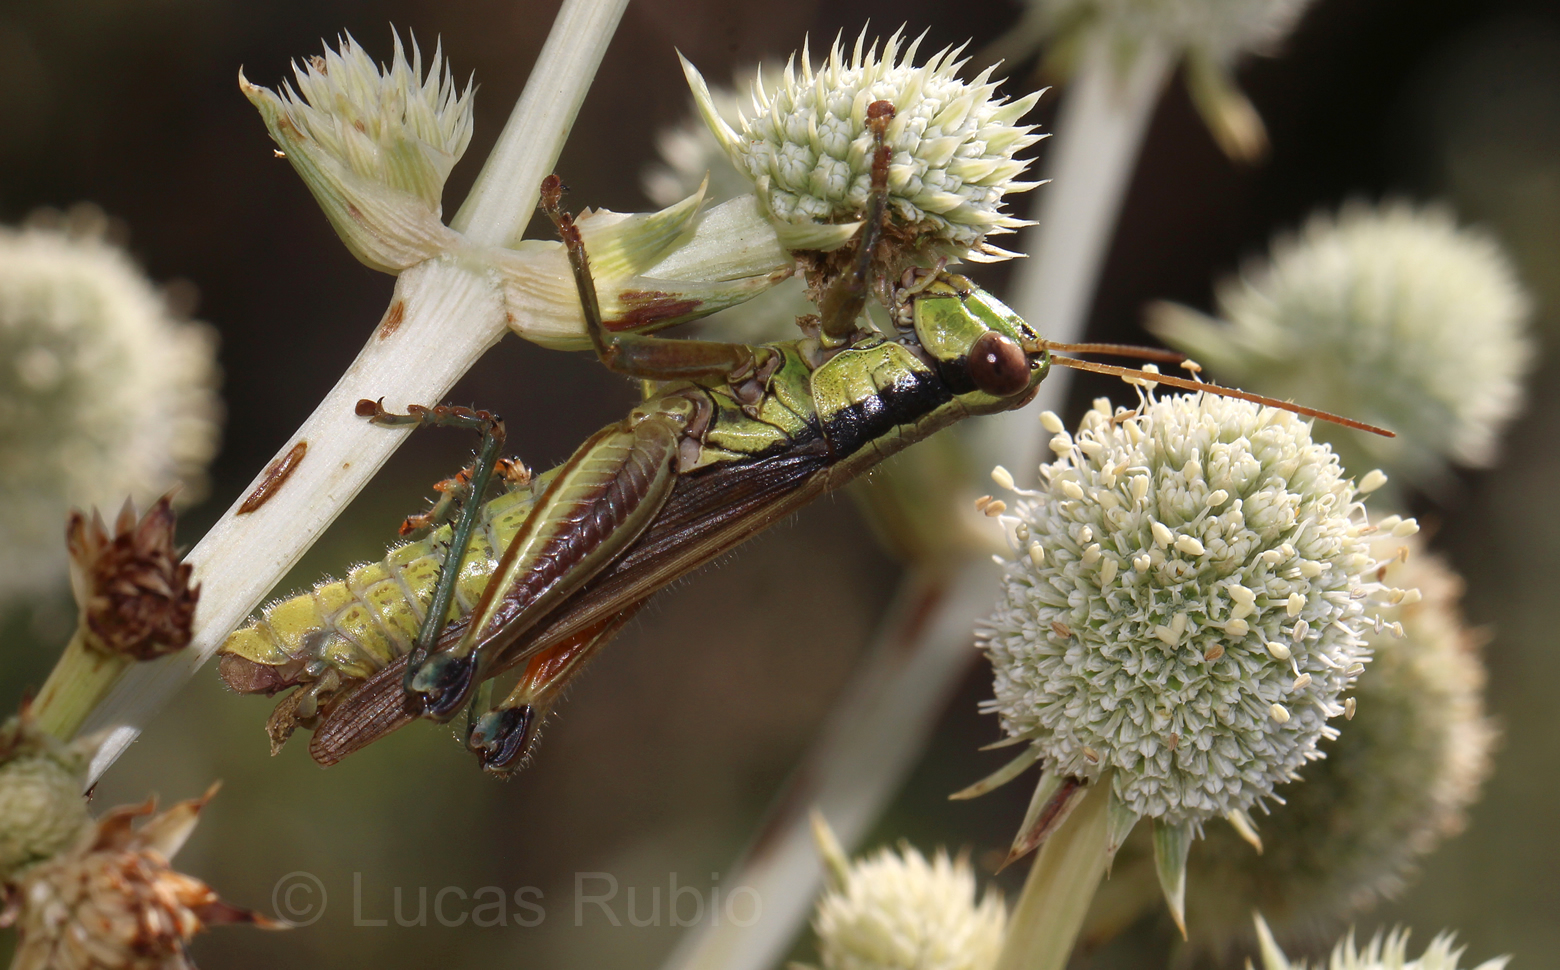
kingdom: Animalia
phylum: Arthropoda
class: Insecta
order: Orthoptera
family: Acrididae
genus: Scotussa
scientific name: Scotussa impudica
